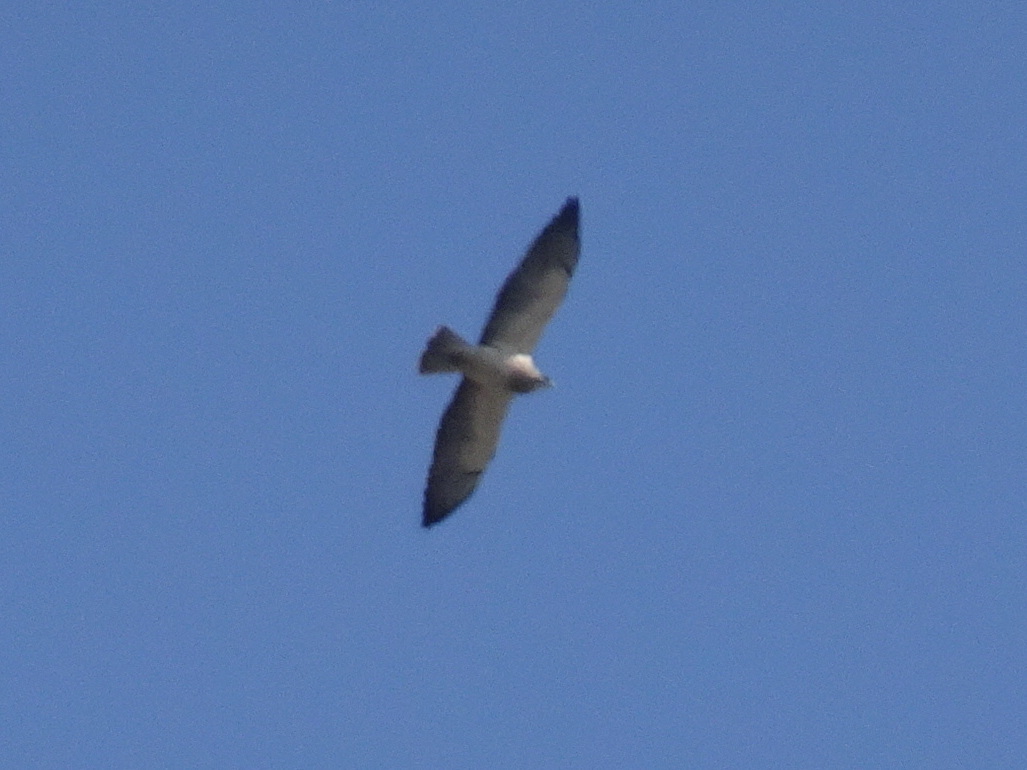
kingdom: Animalia
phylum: Chordata
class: Aves
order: Accipitriformes
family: Accipitridae
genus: Buteo
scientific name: Buteo swainsoni
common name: Swainson's hawk
